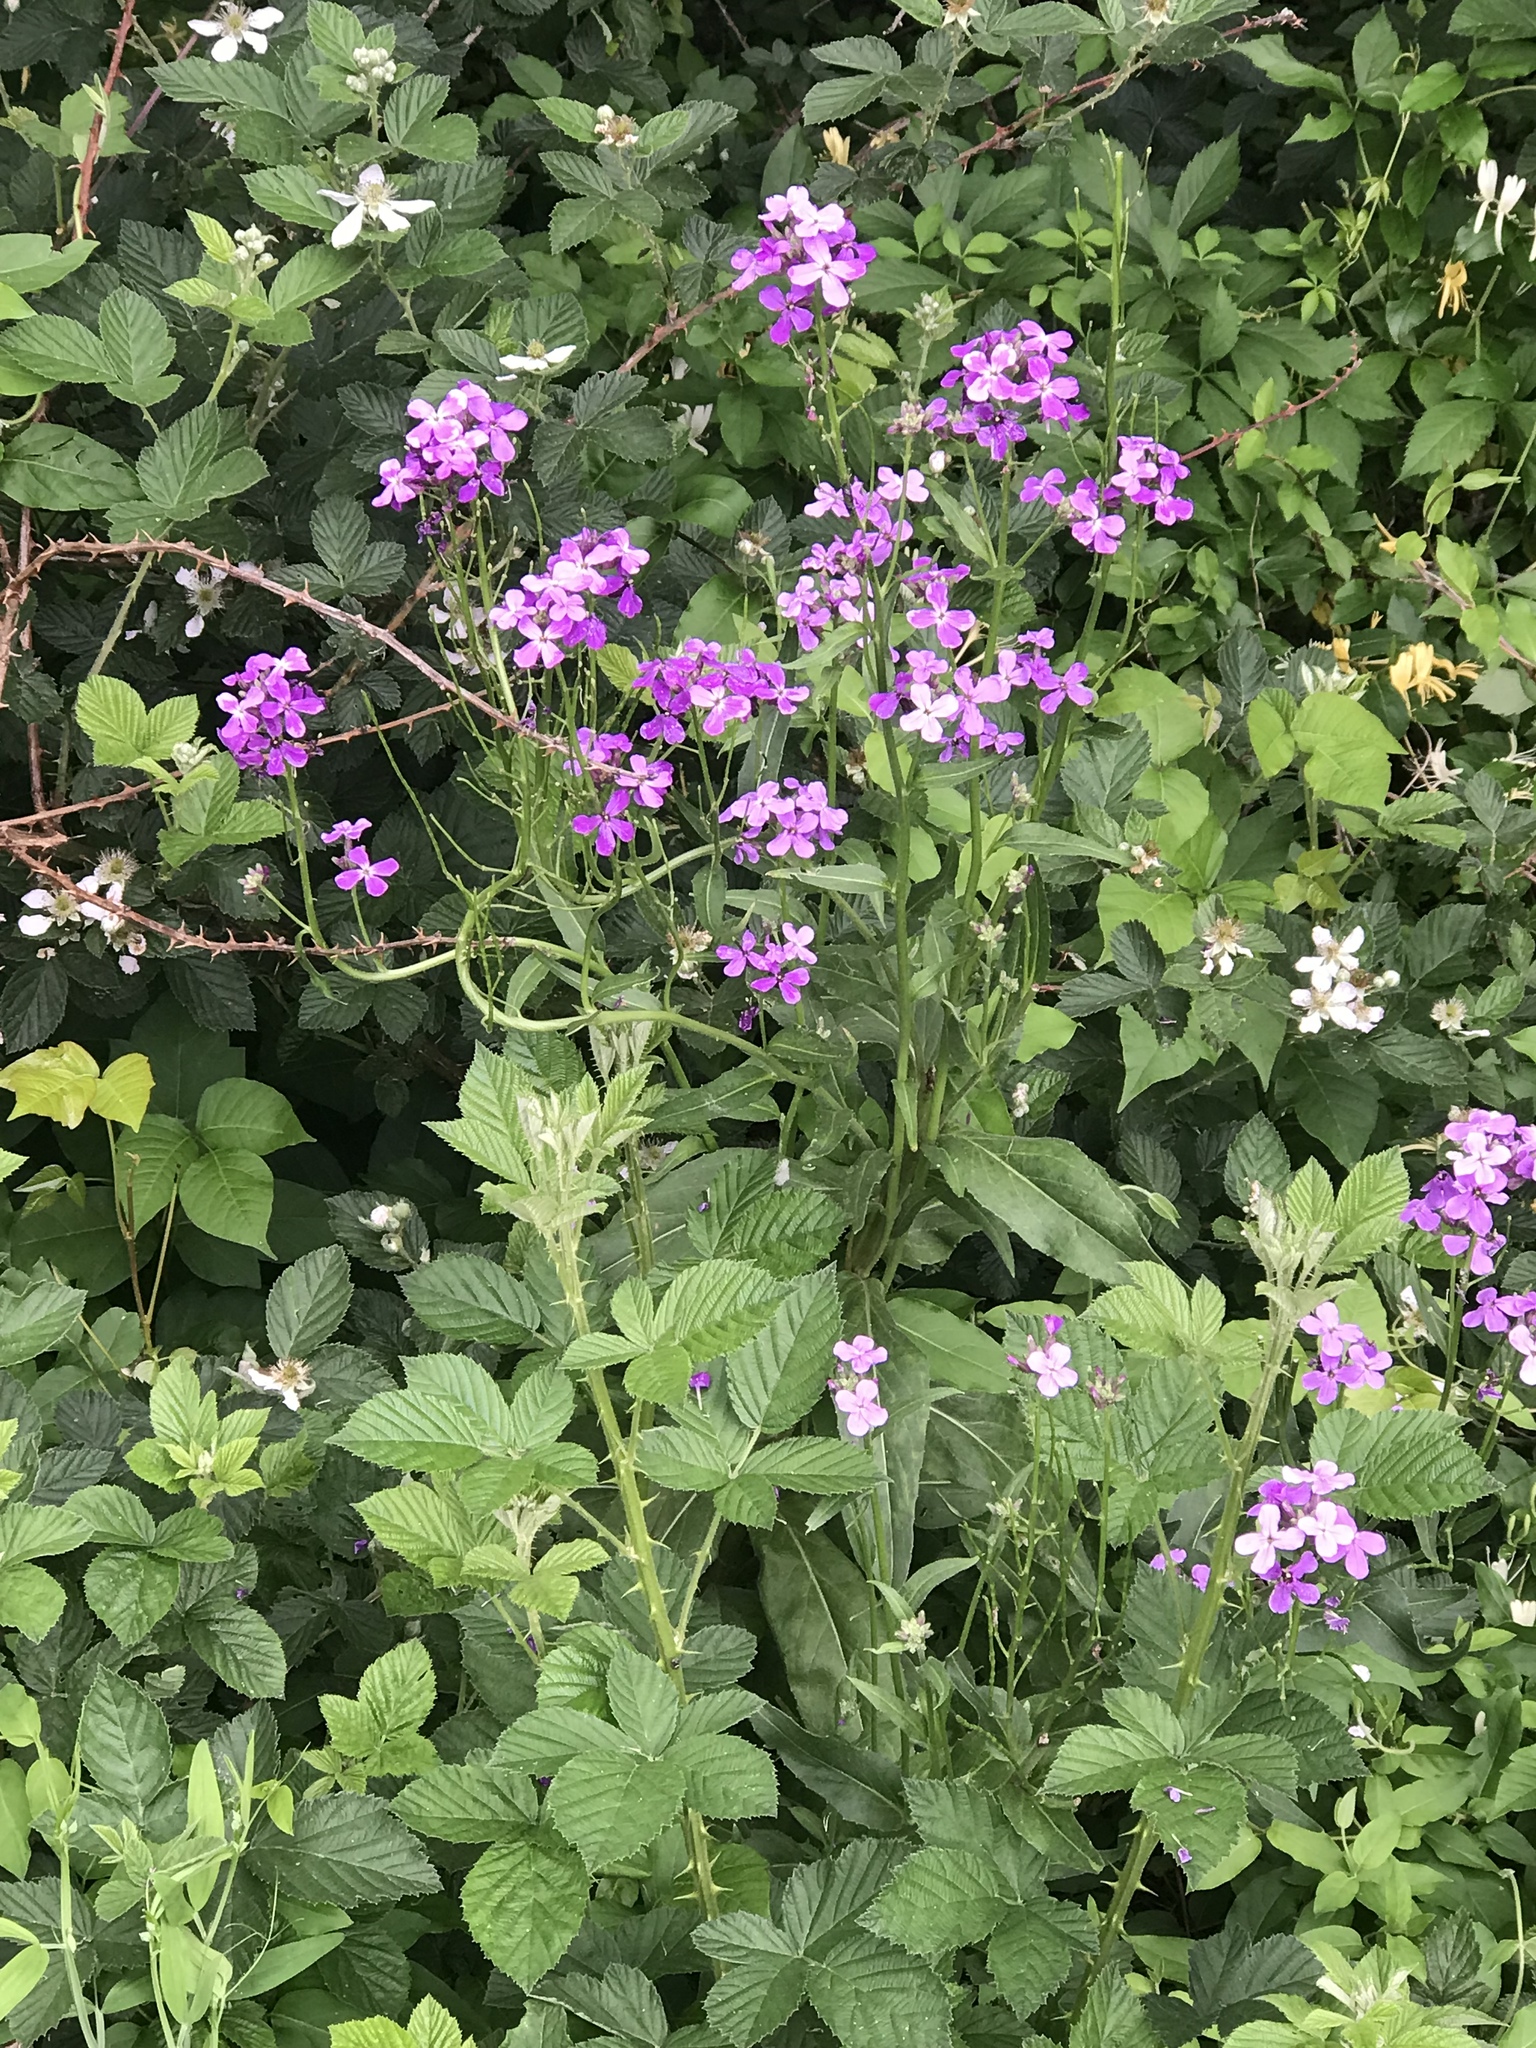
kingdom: Plantae
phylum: Tracheophyta
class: Magnoliopsida
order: Brassicales
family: Brassicaceae
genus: Hesperis
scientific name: Hesperis matronalis
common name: Dame's-violet
